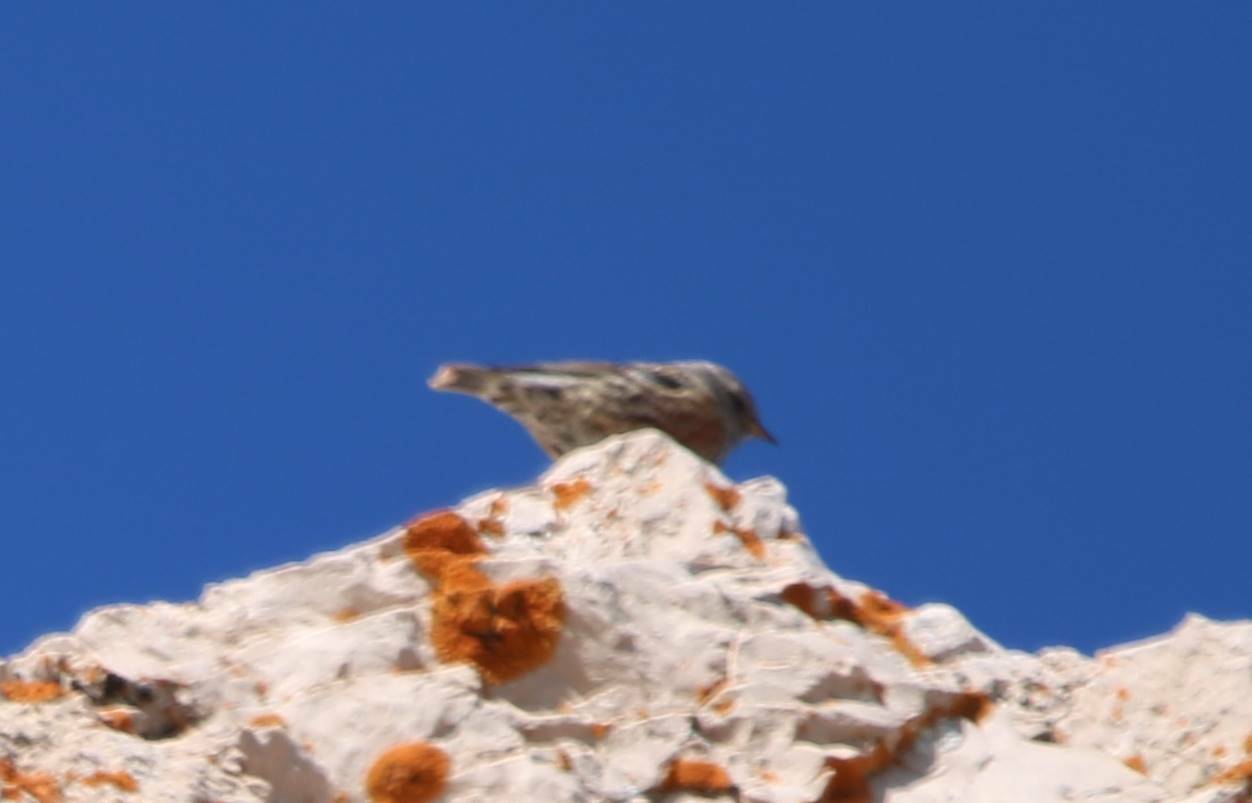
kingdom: Animalia
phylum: Chordata
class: Aves
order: Passeriformes
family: Prunellidae
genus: Prunella
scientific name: Prunella collaris
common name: Alpine accentor
